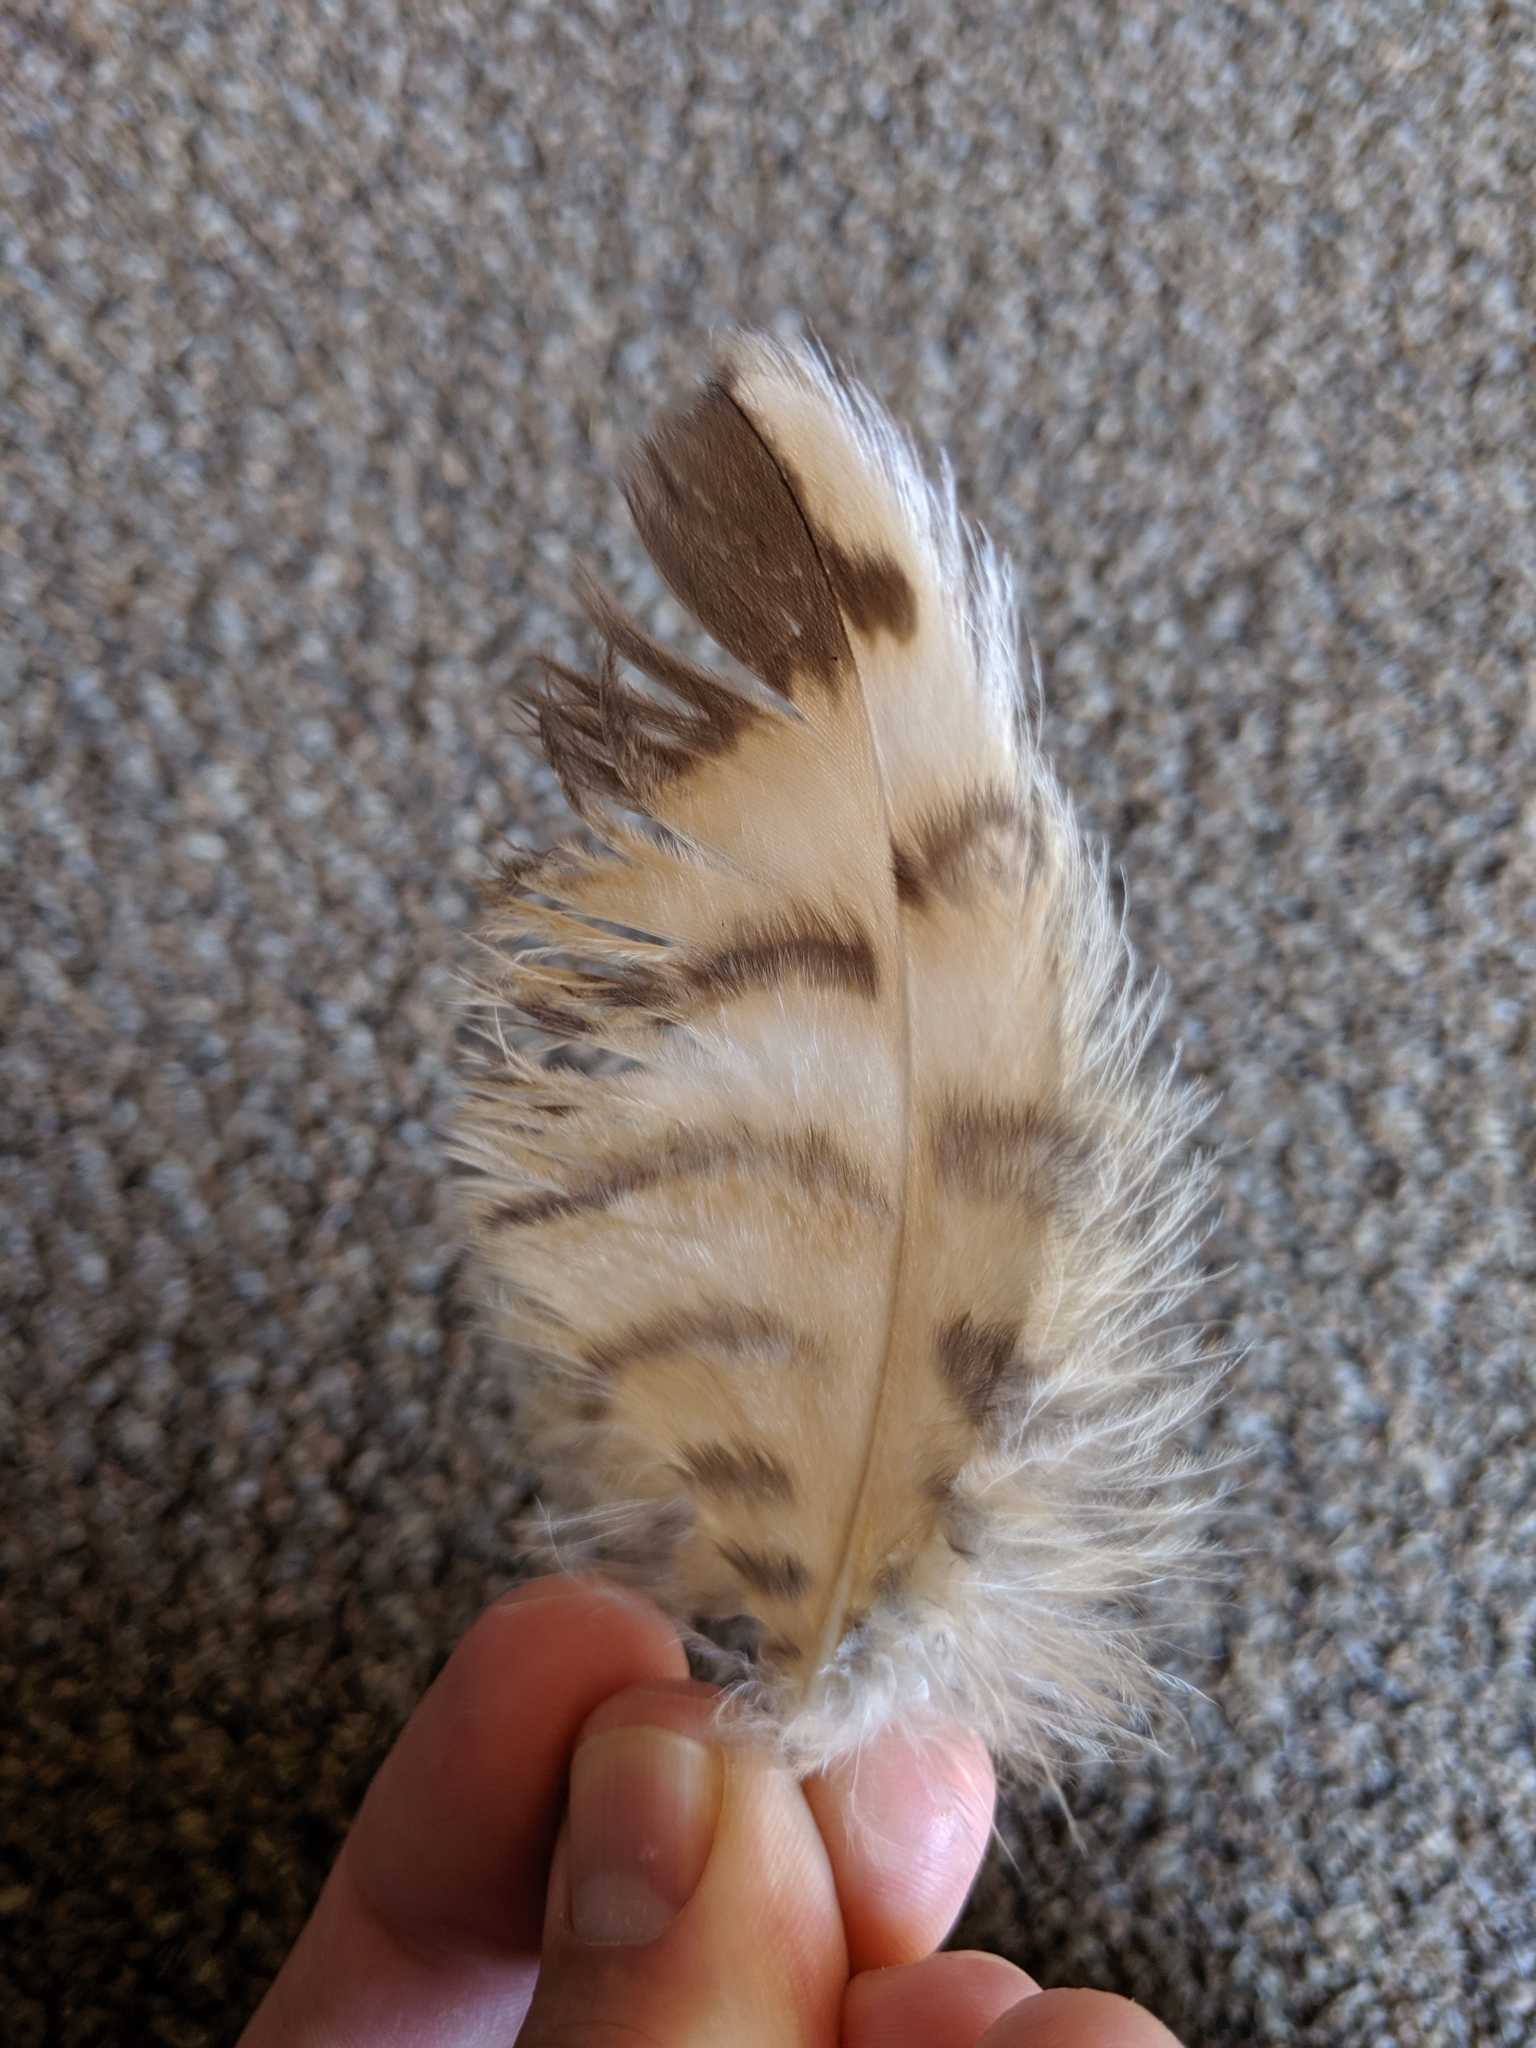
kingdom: Animalia
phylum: Chordata
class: Aves
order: Strigiformes
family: Strigidae
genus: Bubo
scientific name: Bubo virginianus
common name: Great horned owl
